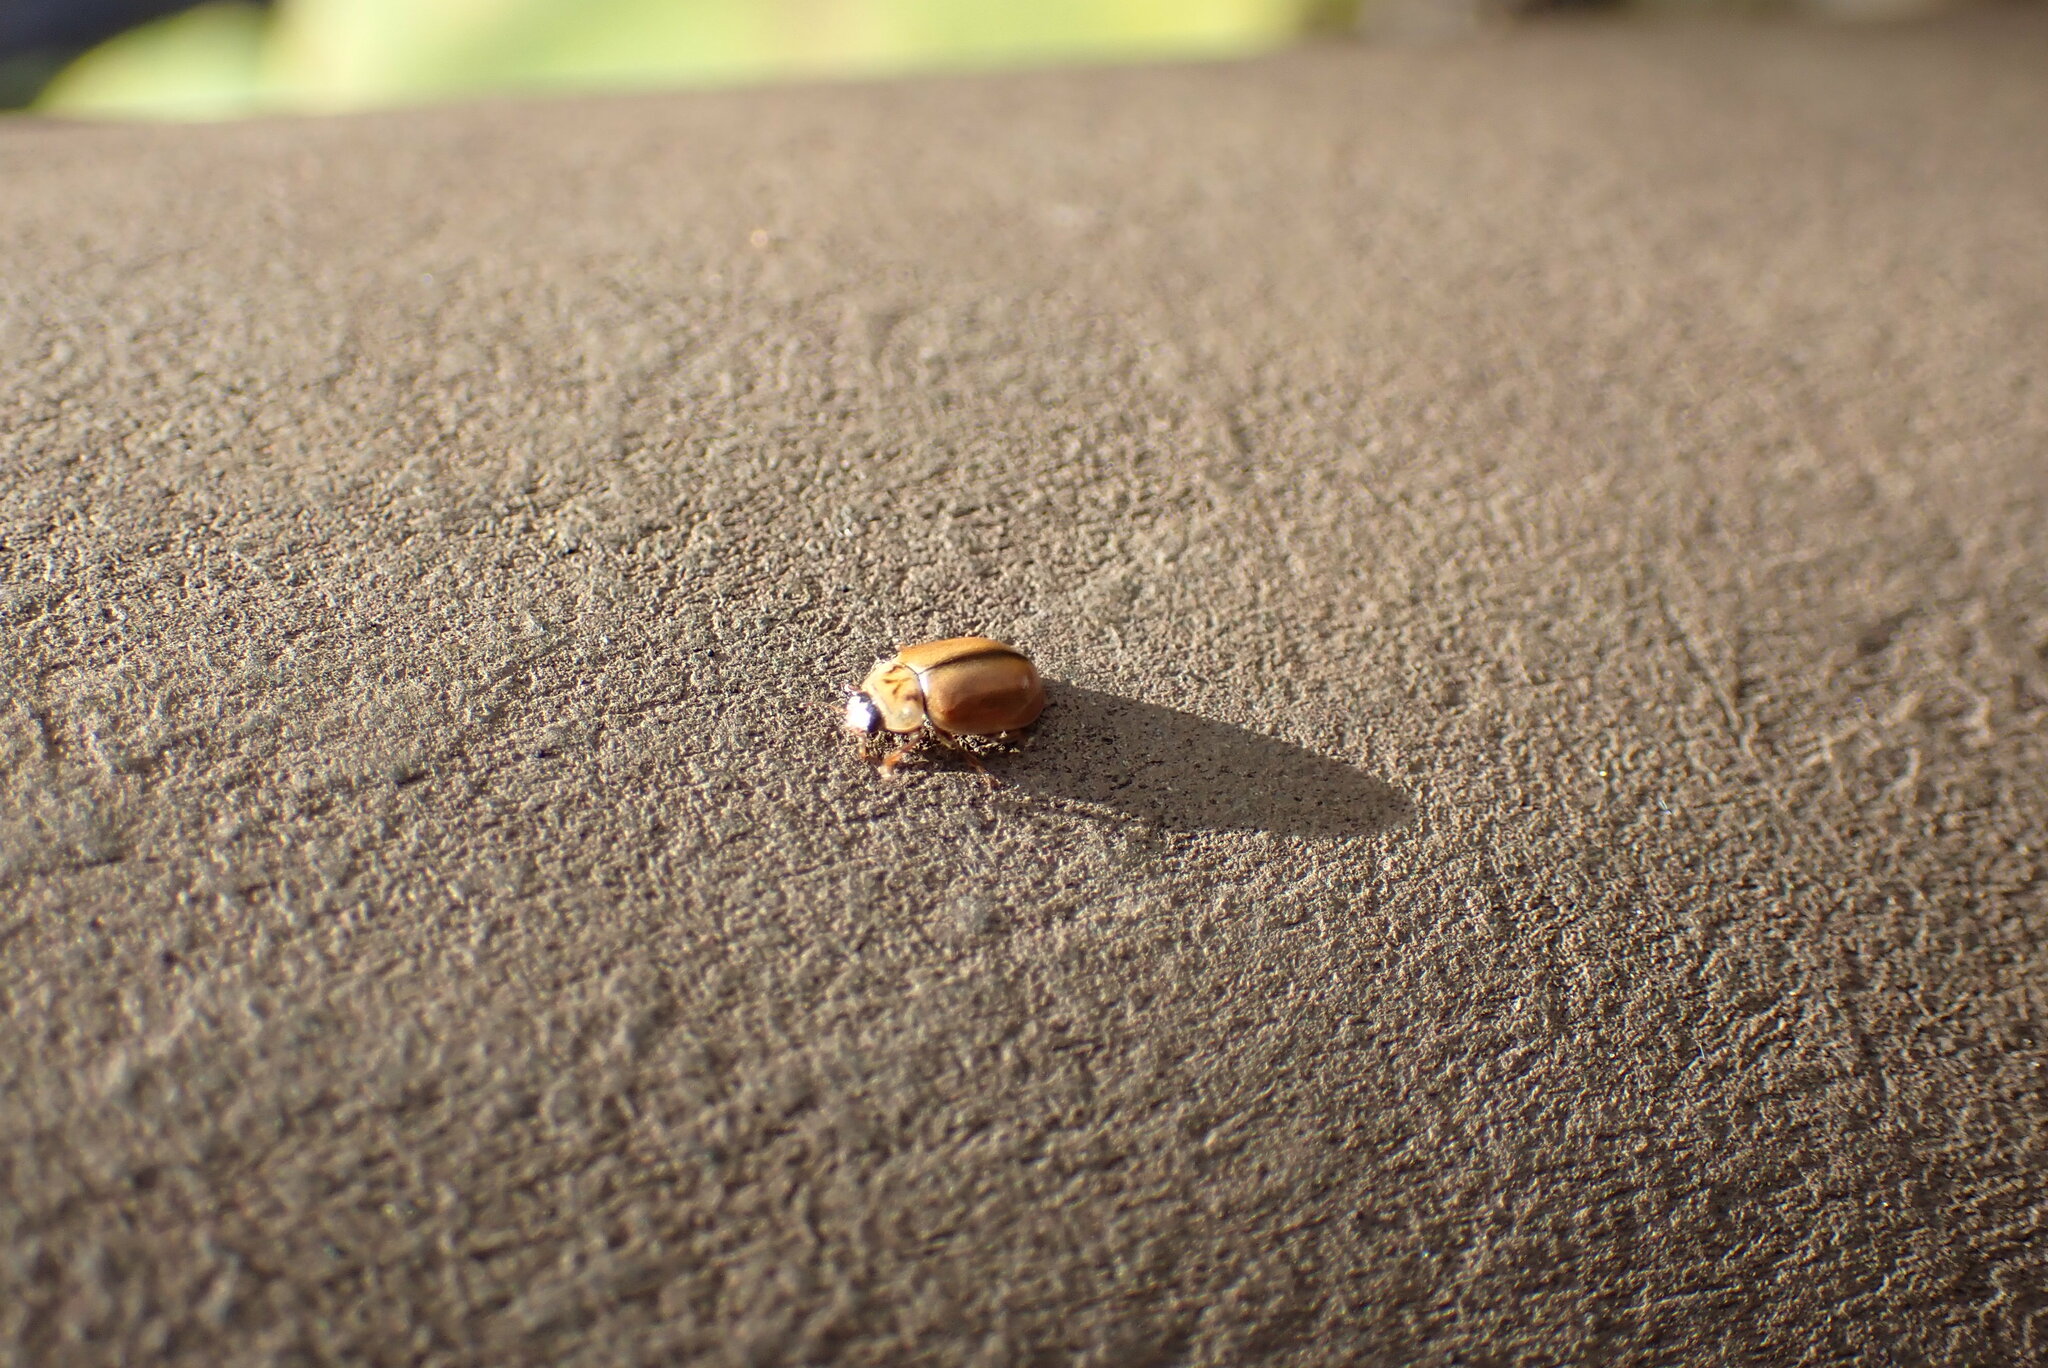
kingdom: Animalia
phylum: Arthropoda
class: Insecta
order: Coleoptera
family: Coccinellidae
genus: Aphidecta
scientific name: Aphidecta obliterata
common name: Larch ladybird
